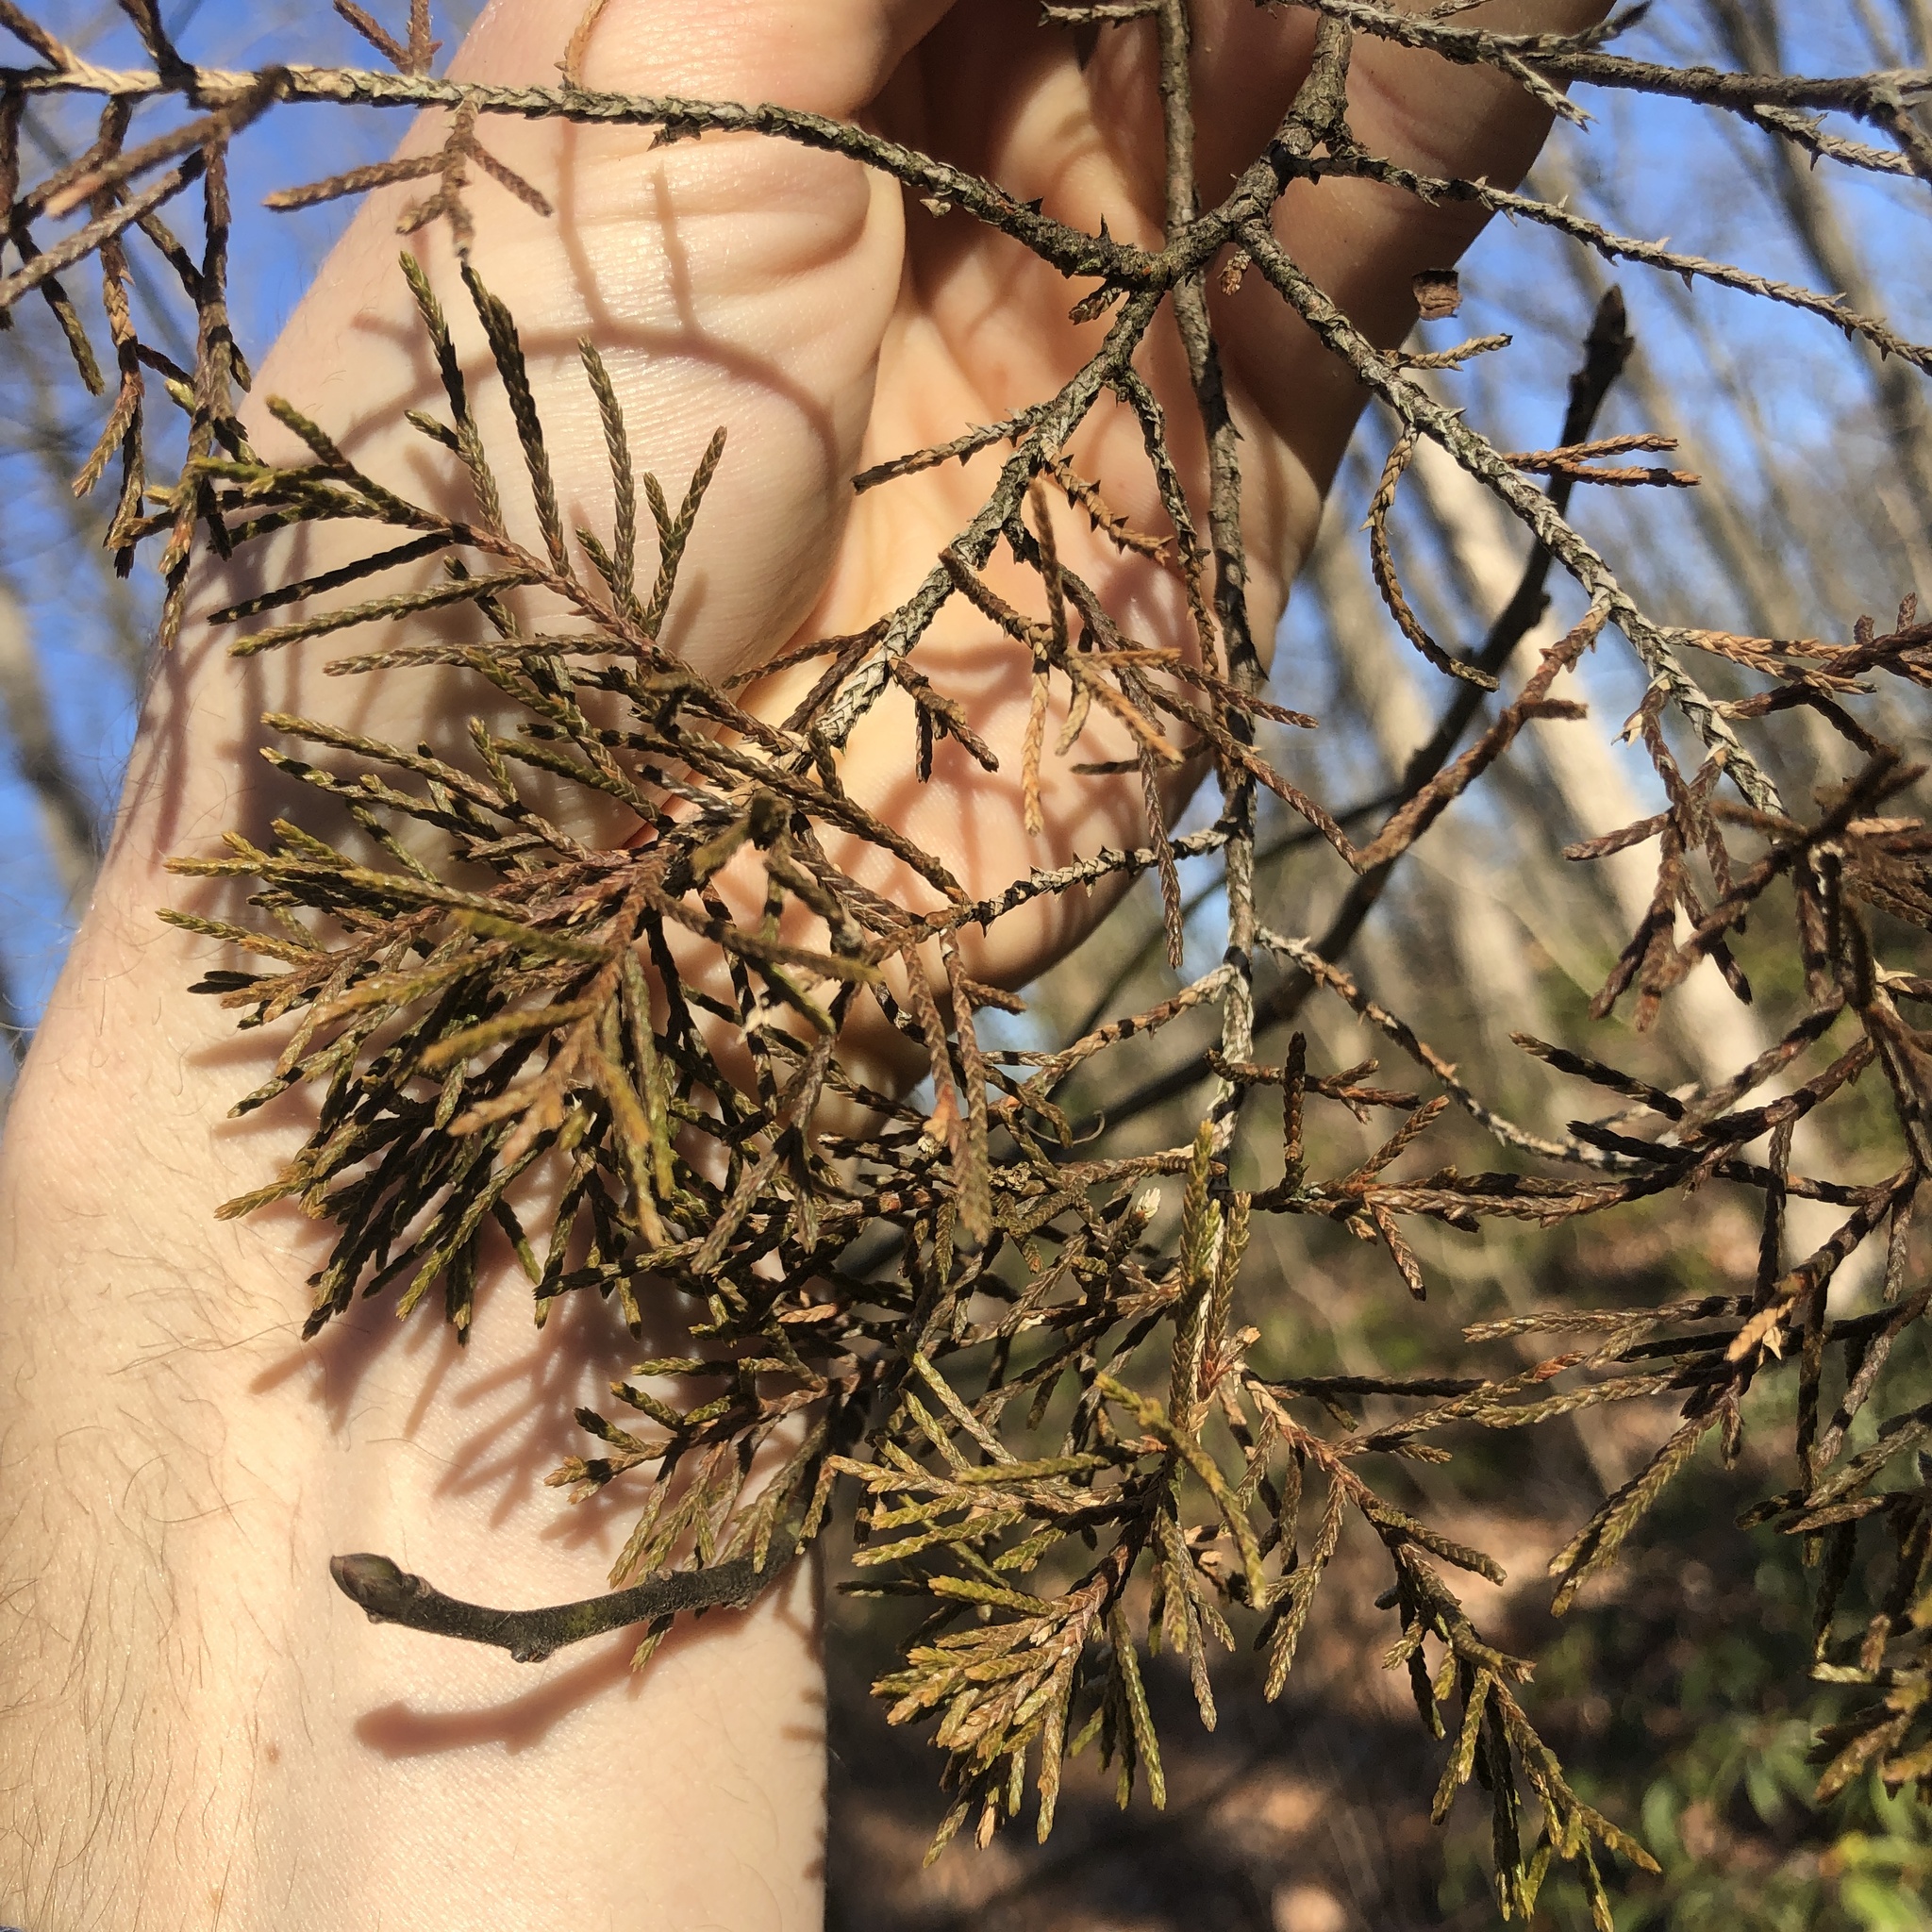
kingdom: Plantae
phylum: Tracheophyta
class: Pinopsida
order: Pinales
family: Cupressaceae
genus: Chamaecyparis
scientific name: Chamaecyparis thyoides
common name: Atlantic white cedar
